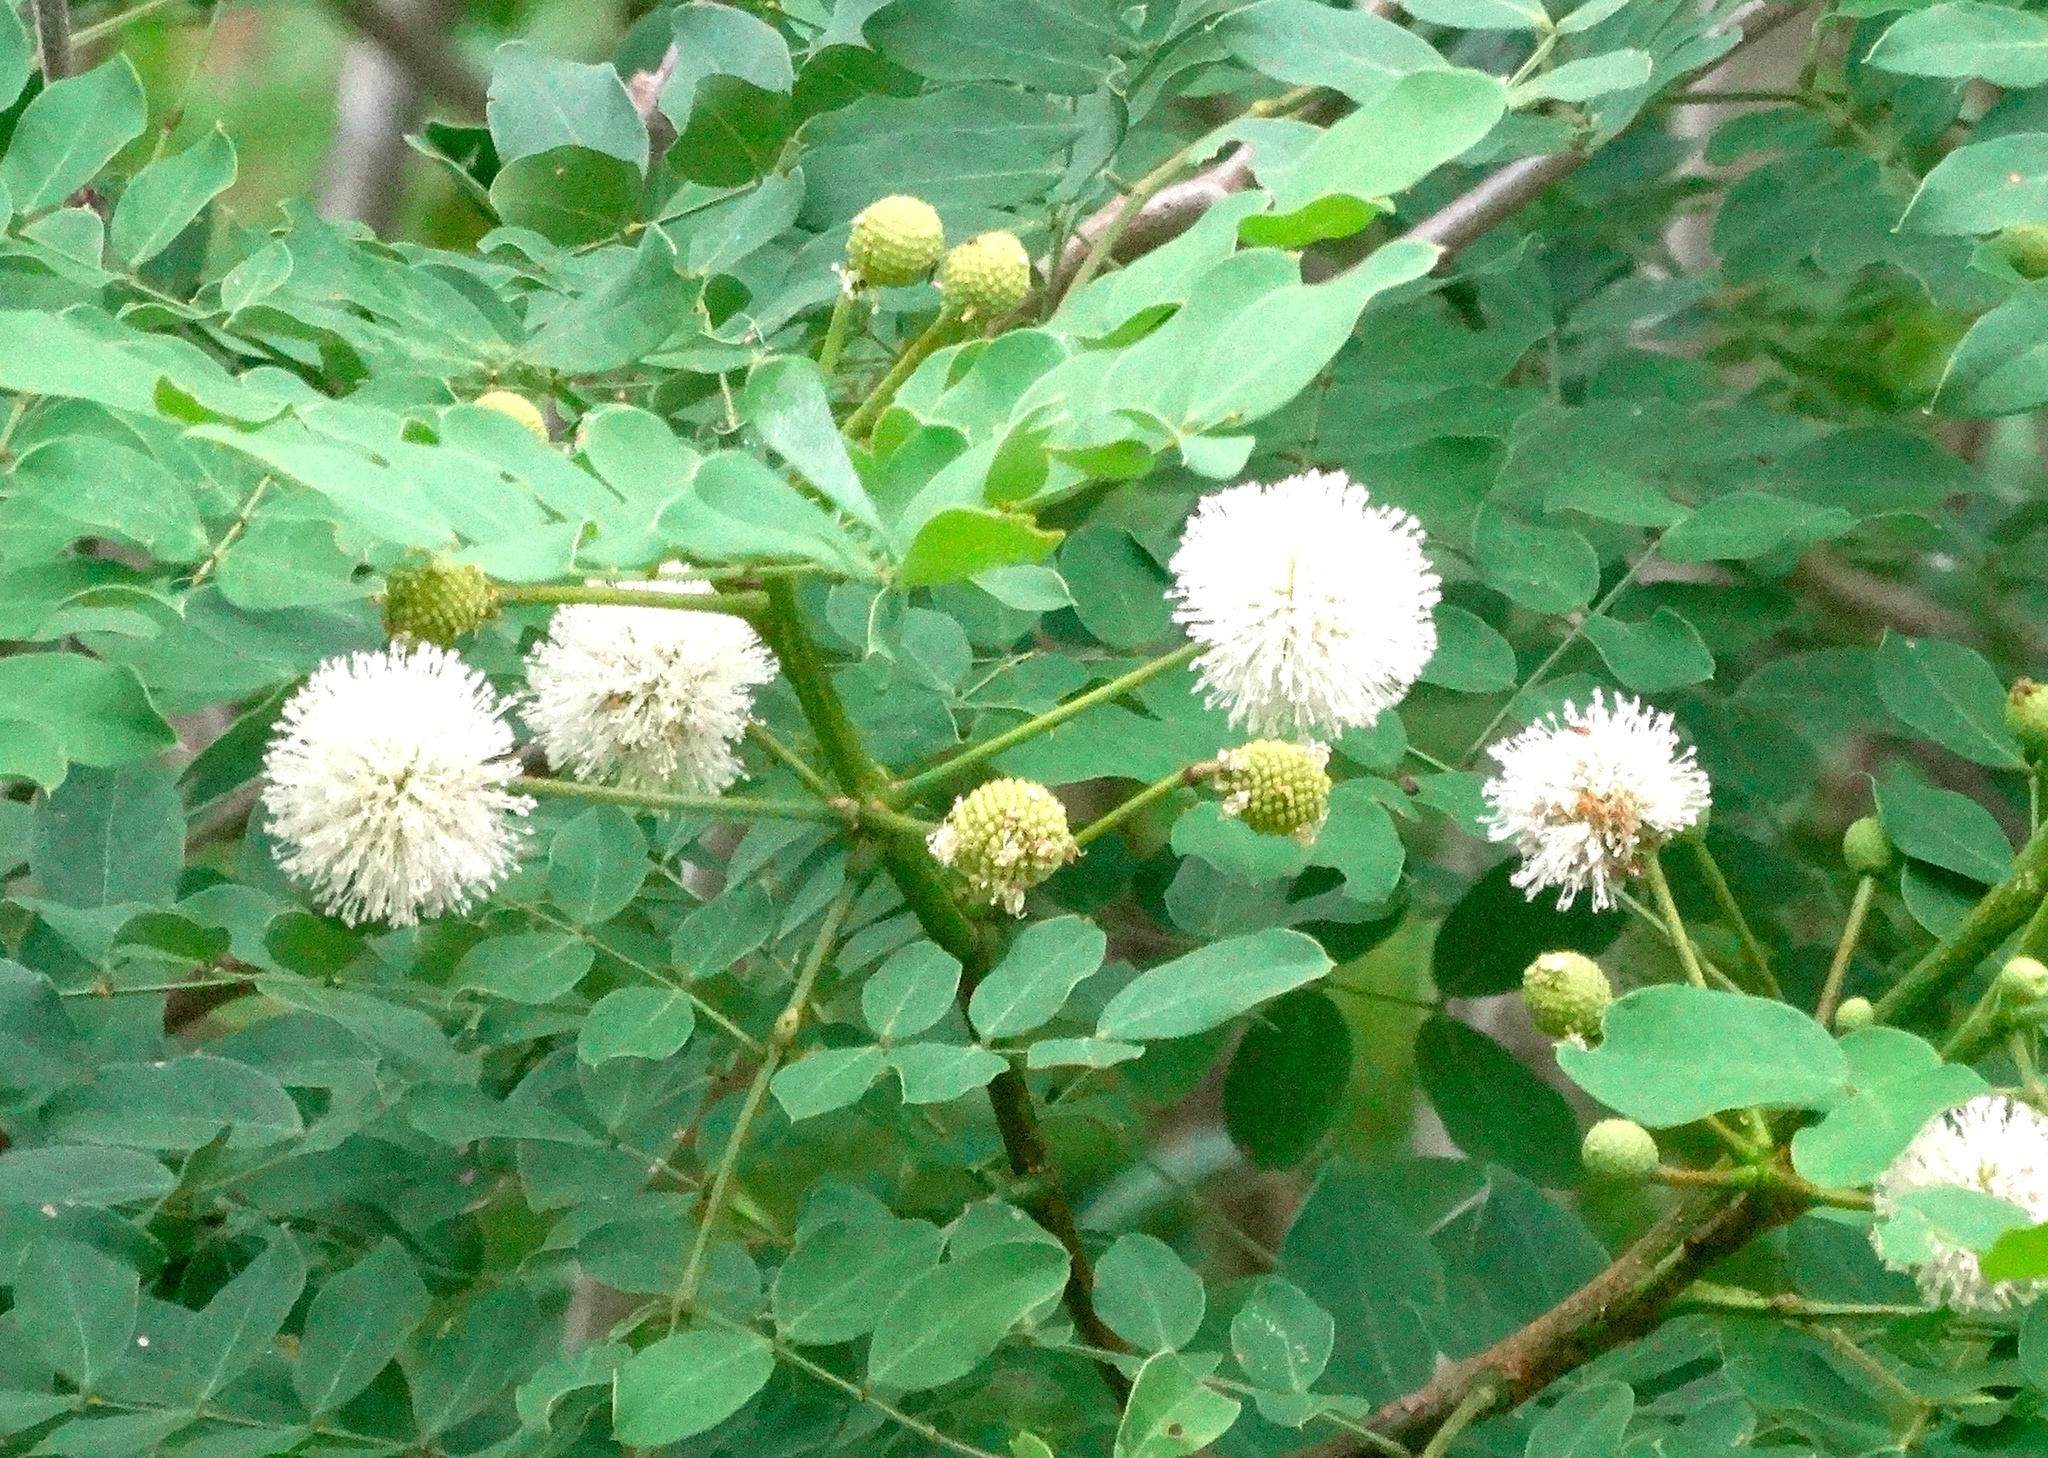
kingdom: Plantae
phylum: Tracheophyta
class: Magnoliopsida
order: Fabales
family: Fabaceae
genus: Leucaena
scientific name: Leucaena lanceolata
